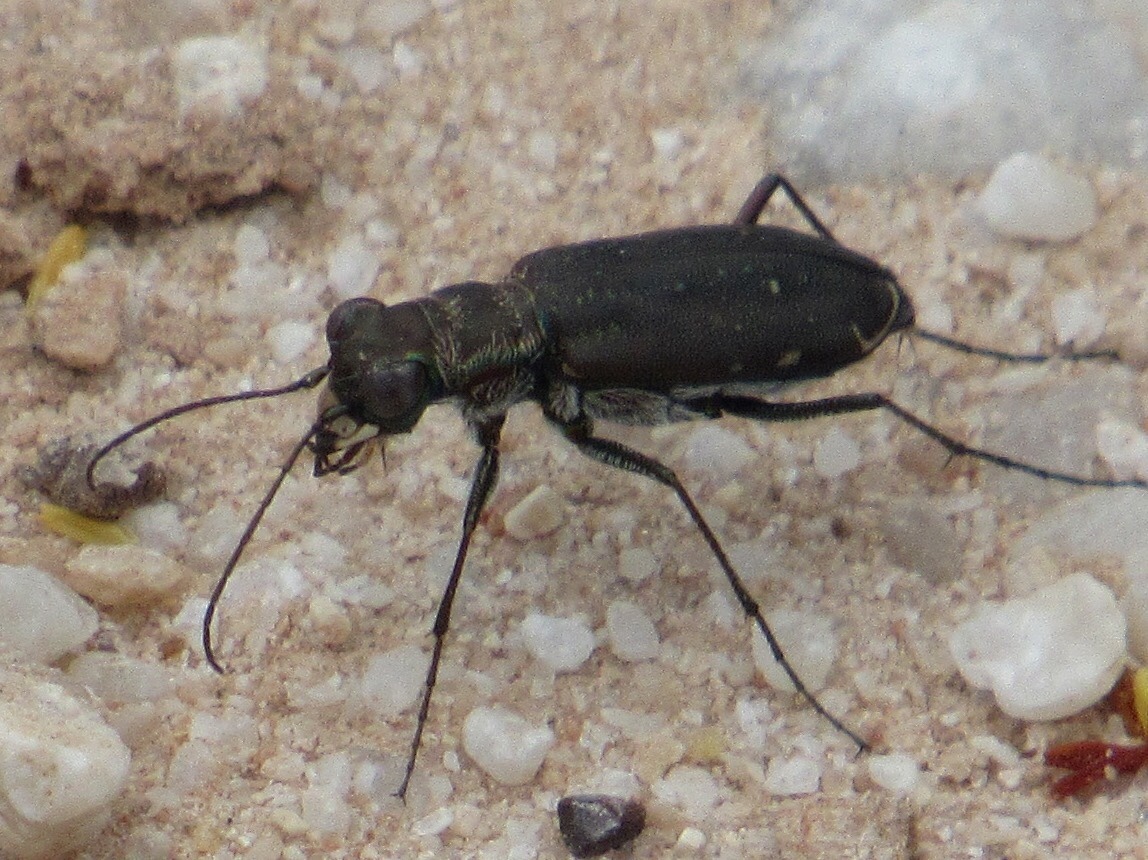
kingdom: Animalia
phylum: Arthropoda
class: Insecta
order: Coleoptera
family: Carabidae
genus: Cicindela
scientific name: Cicindela punctulata
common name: Punctured tiger beetle
